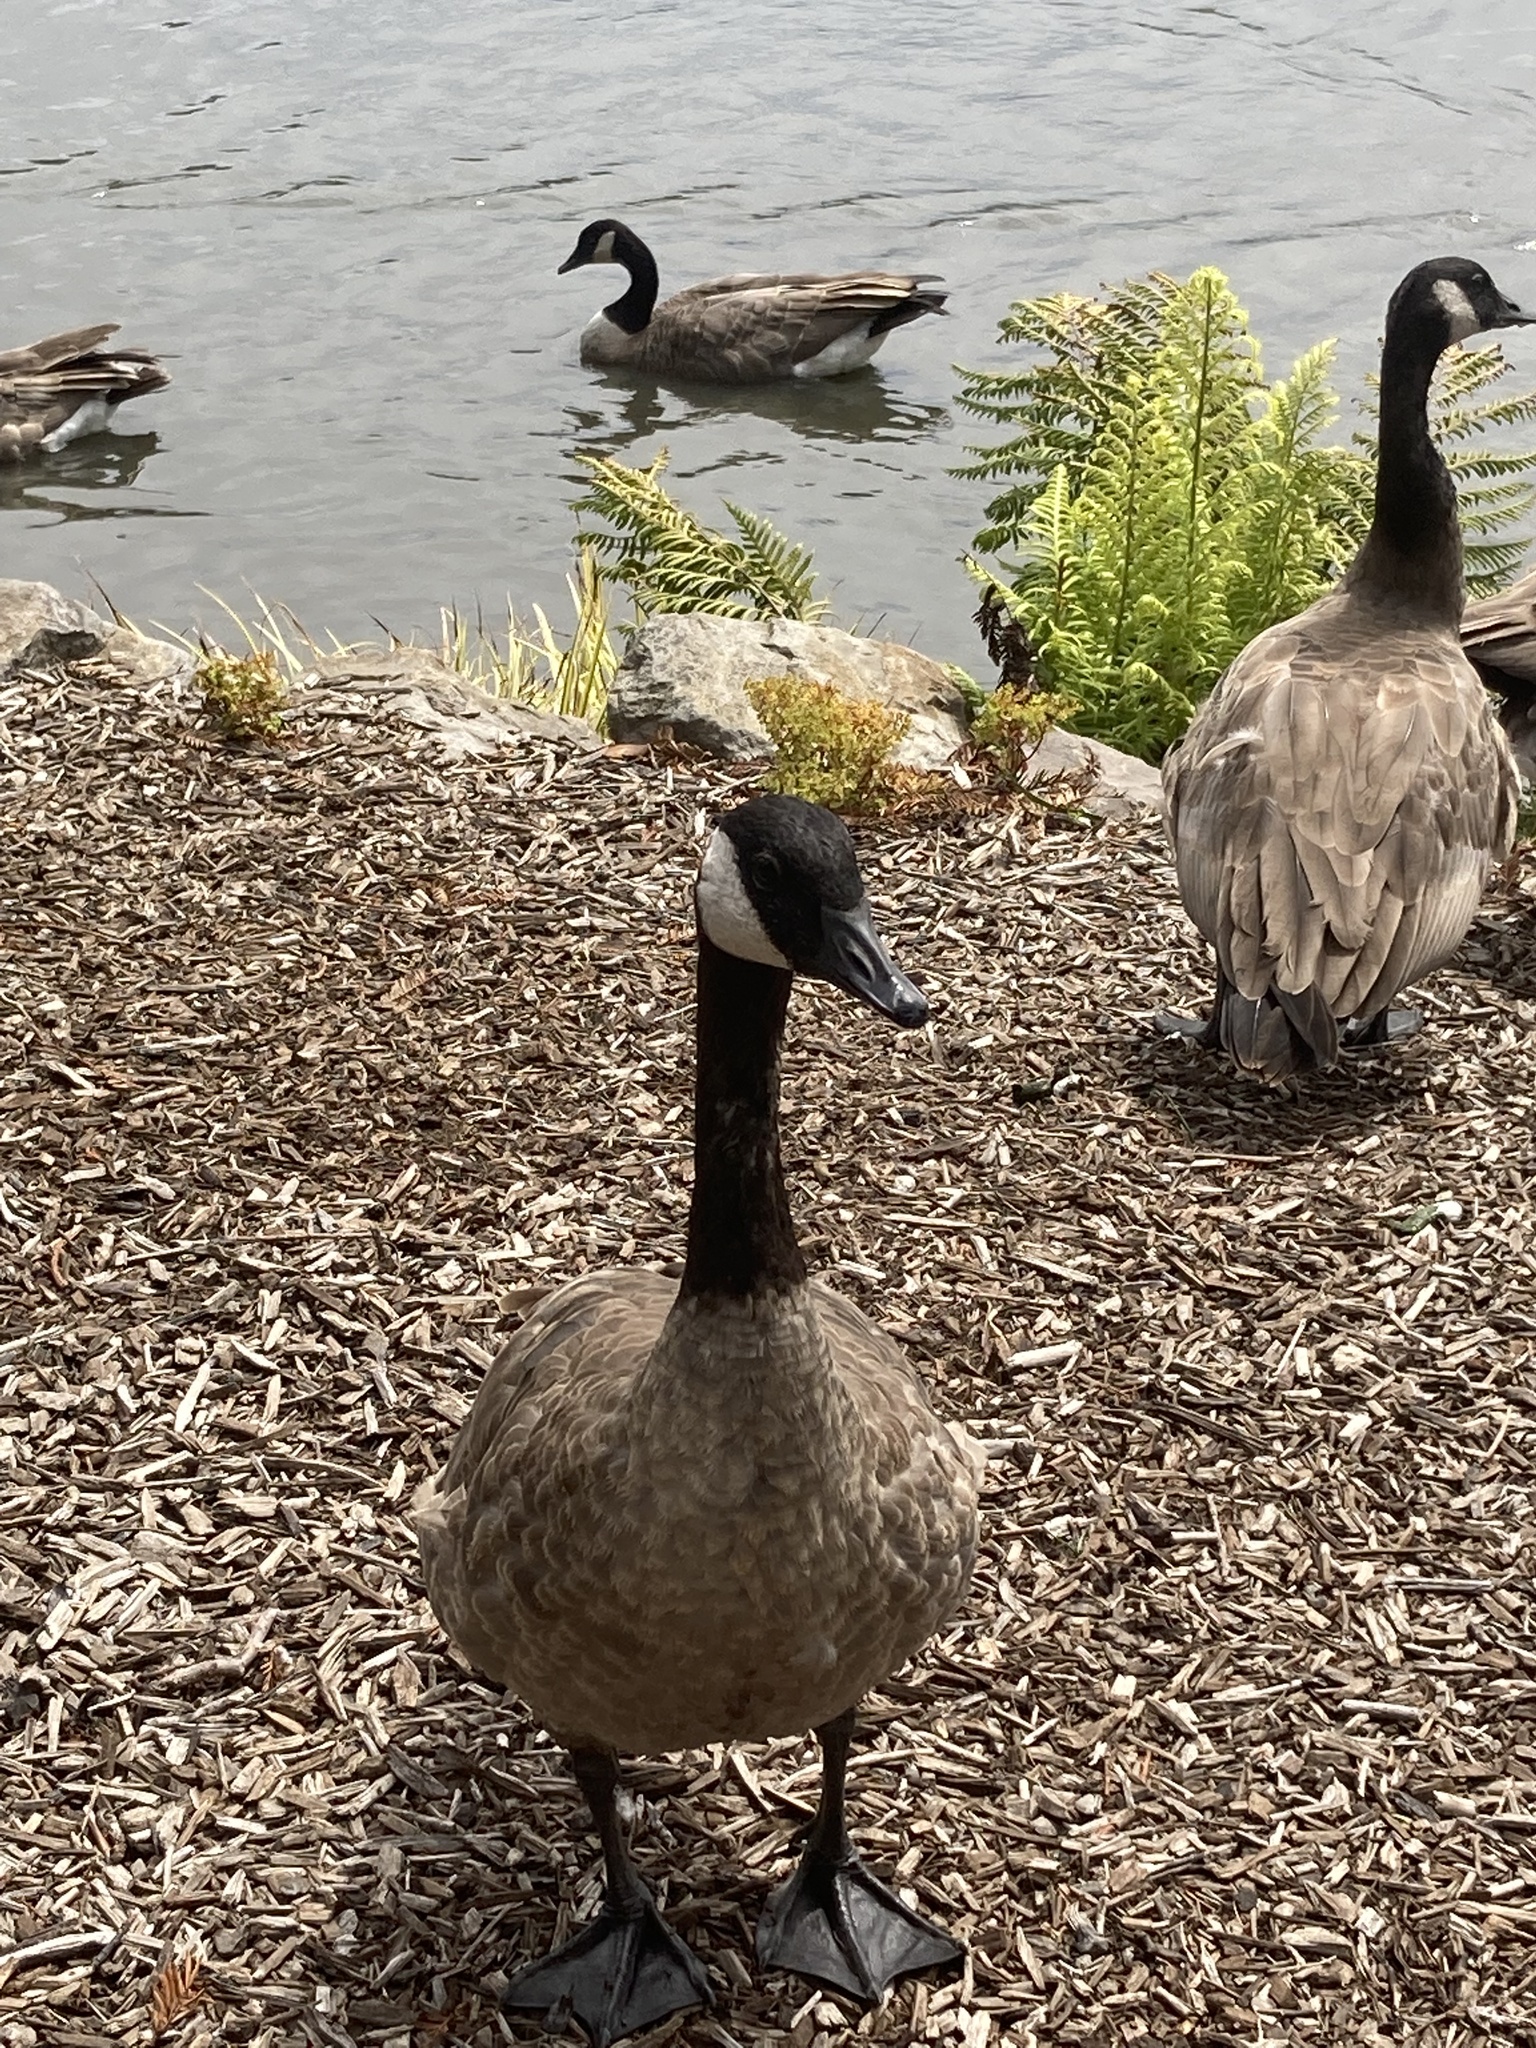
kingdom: Animalia
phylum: Chordata
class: Aves
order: Anseriformes
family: Anatidae
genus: Branta
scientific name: Branta canadensis
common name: Canada goose
